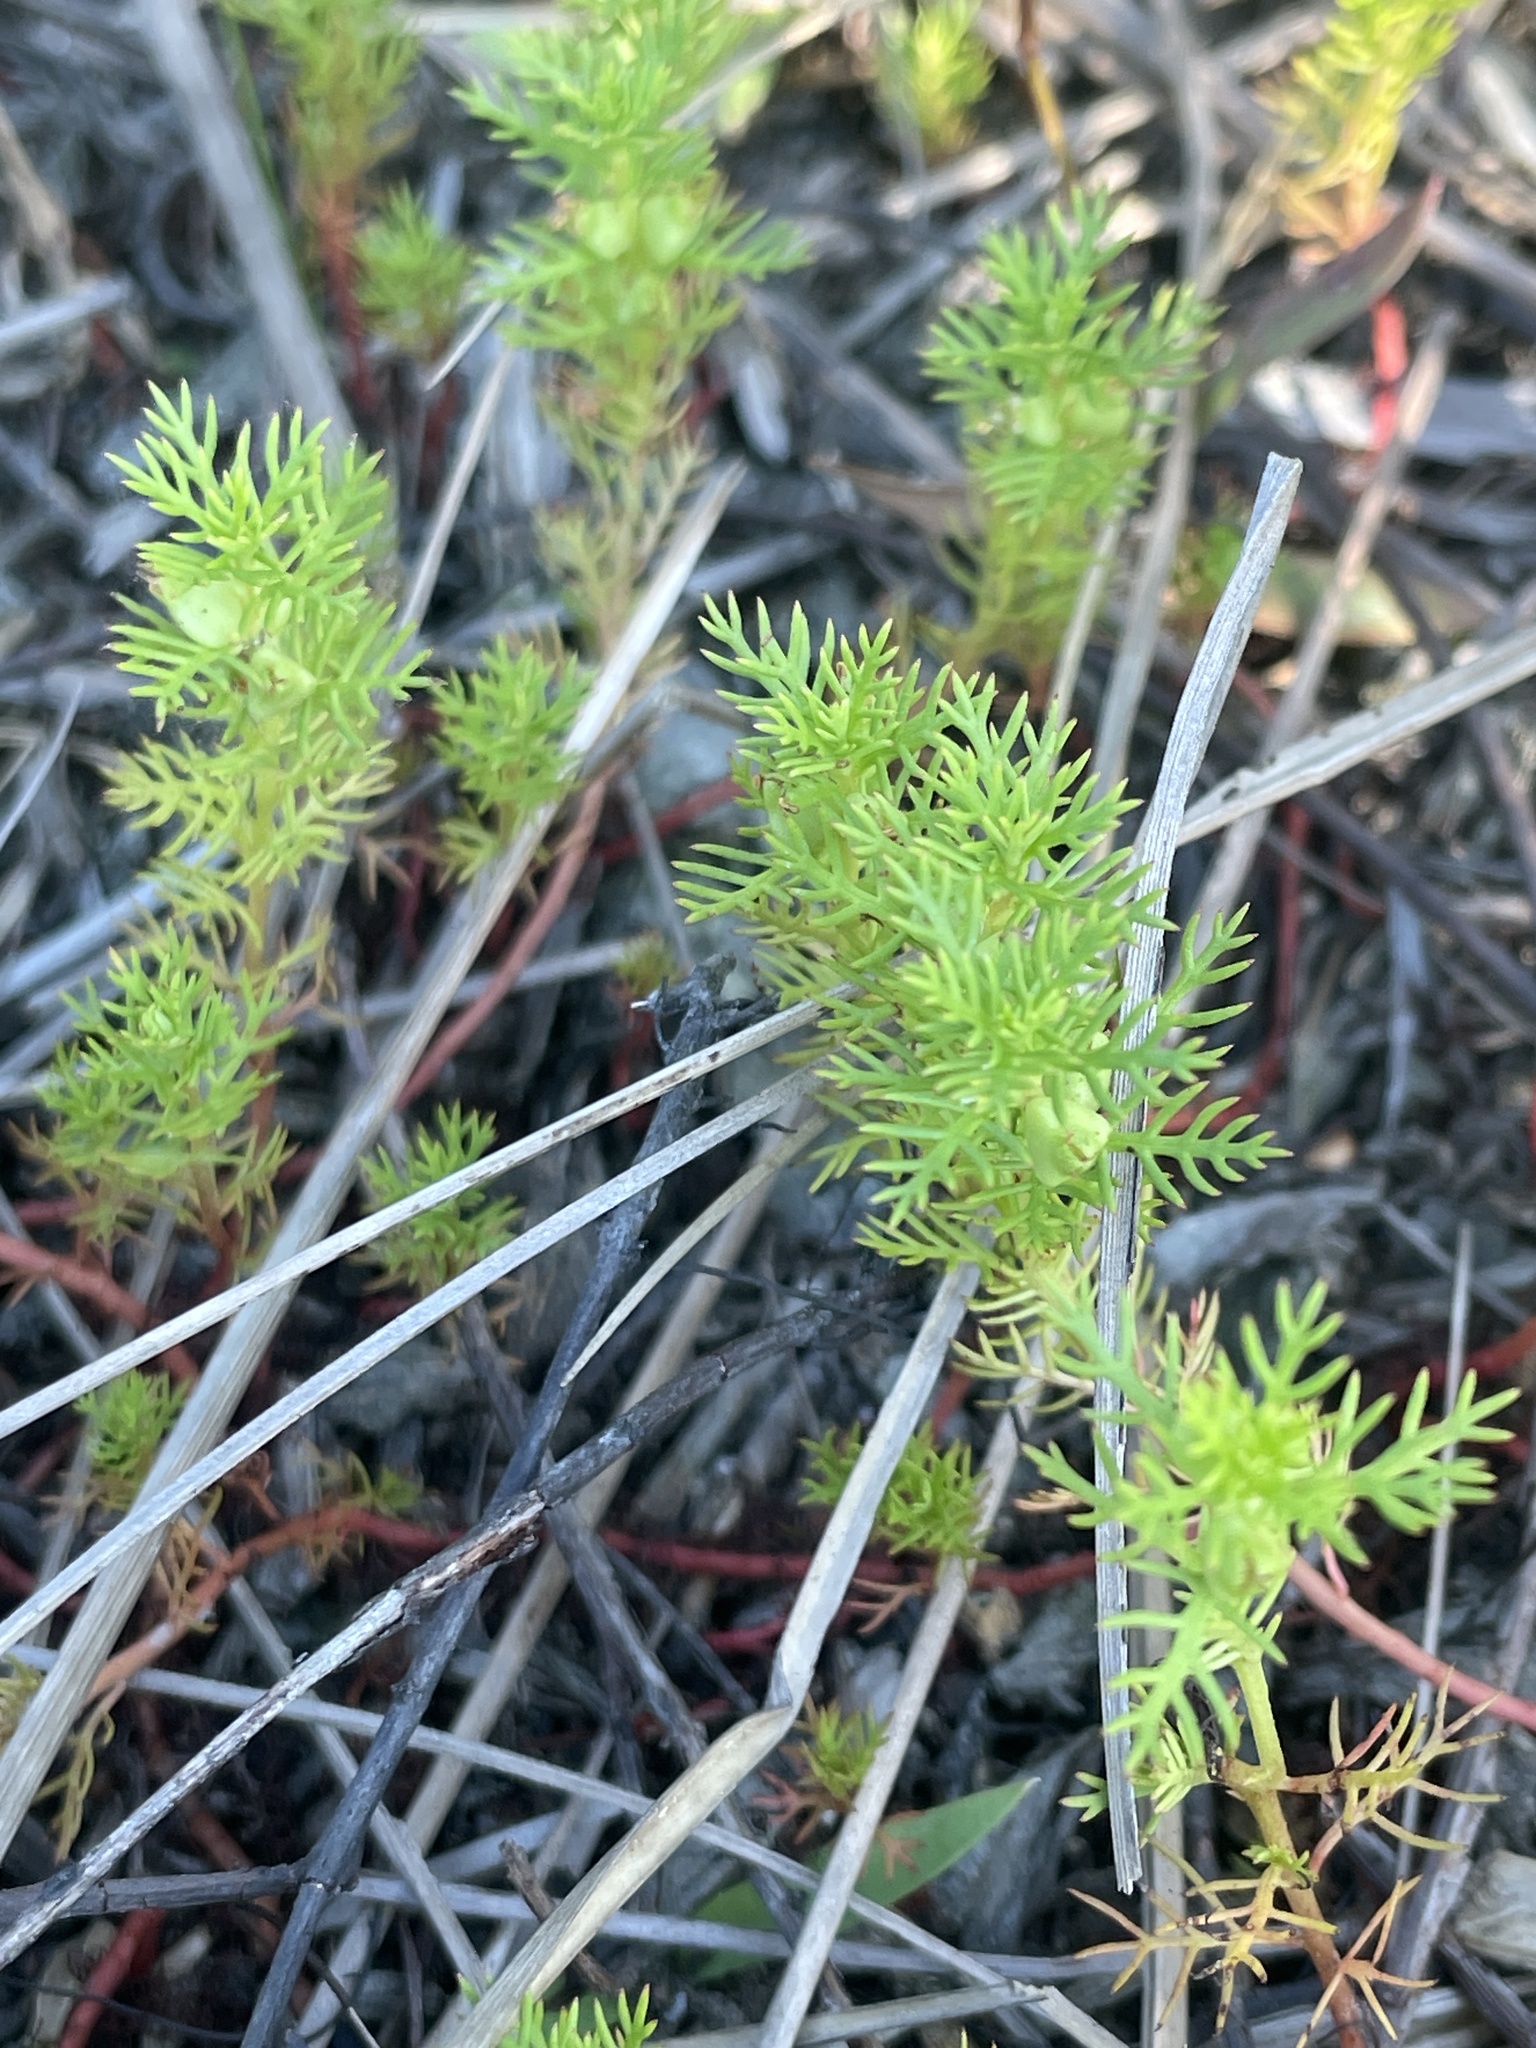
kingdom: Plantae
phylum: Tracheophyta
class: Magnoliopsida
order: Saxifragales
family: Haloragaceae
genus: Proserpinaca
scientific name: Proserpinaca pectinata
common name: Comb-leaved mermaidweed
